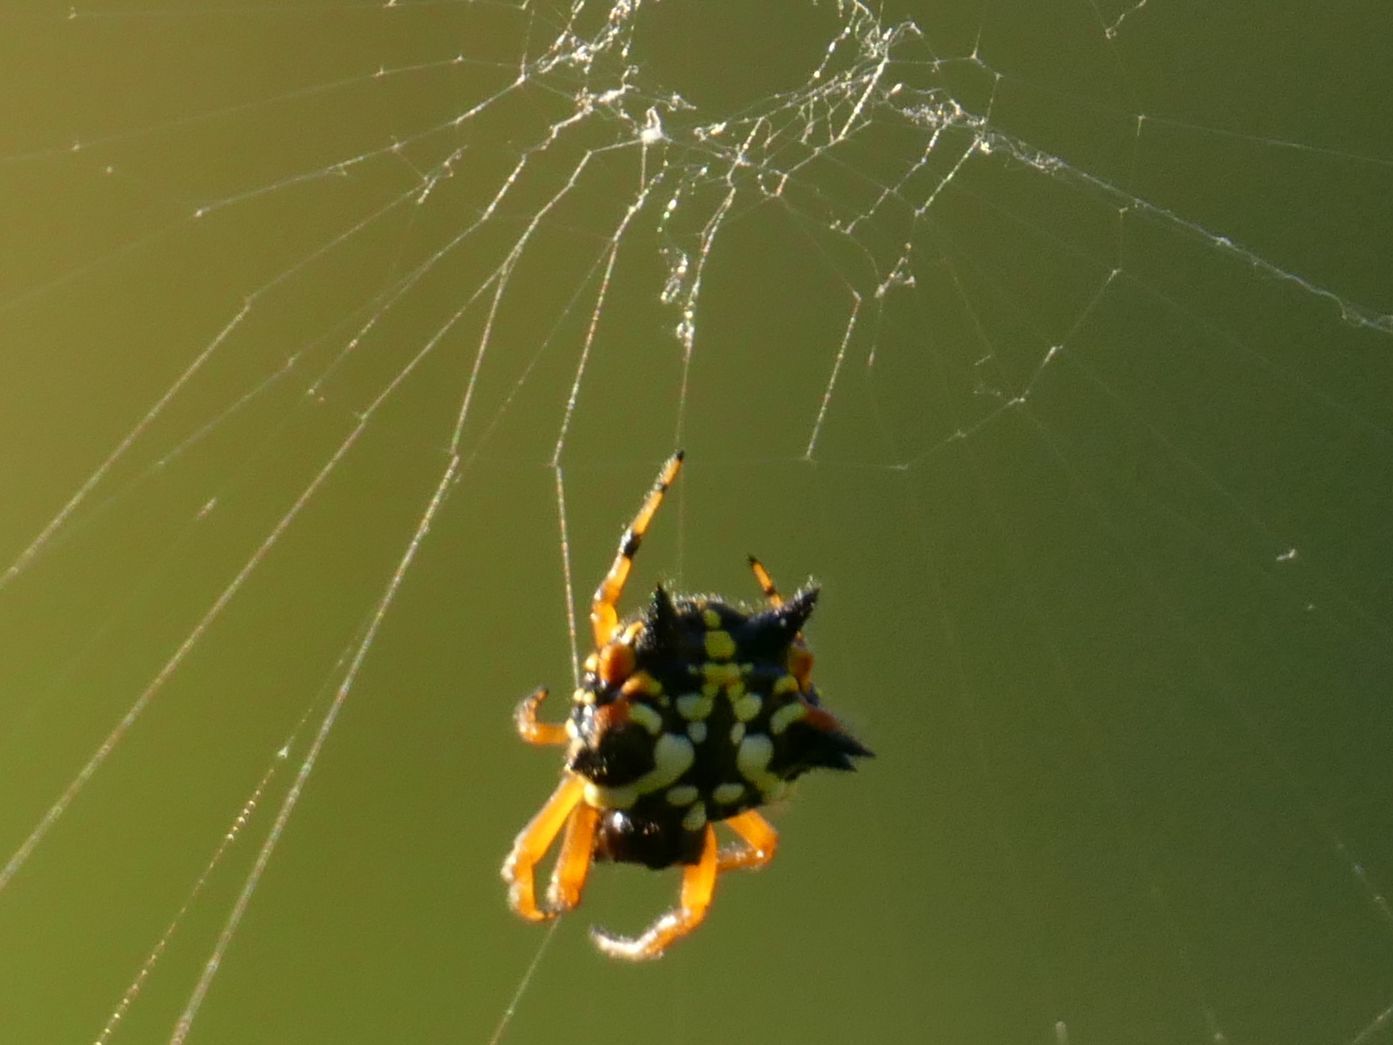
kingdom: Animalia
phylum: Arthropoda
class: Arachnida
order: Araneae
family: Araneidae
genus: Austracantha
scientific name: Austracantha minax
